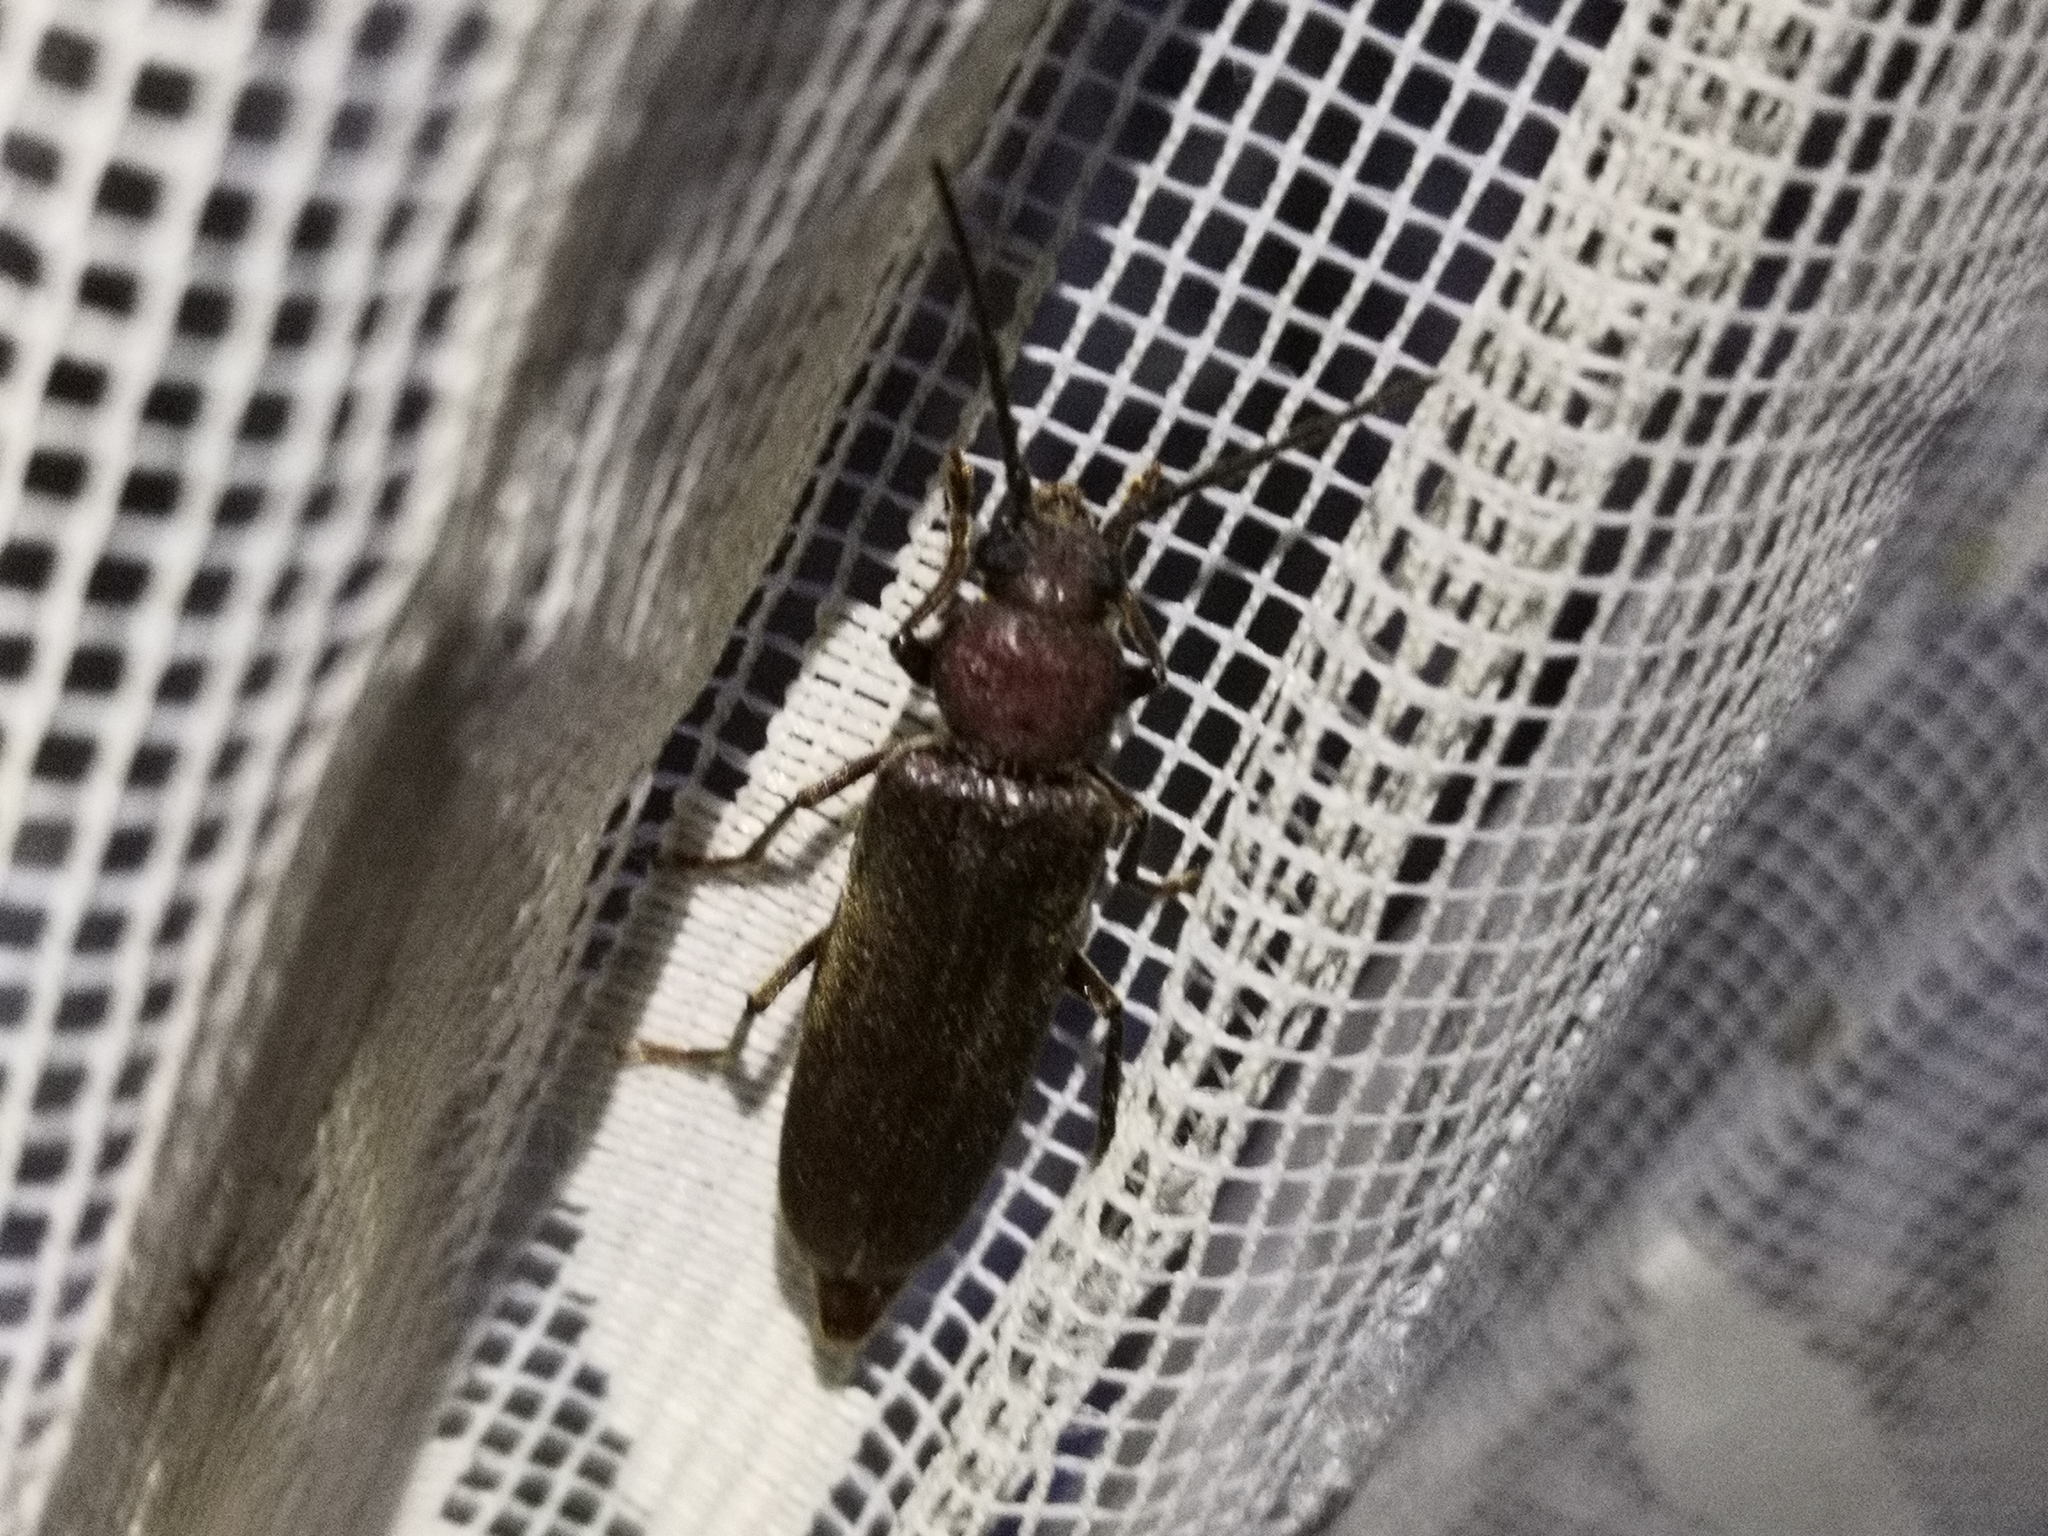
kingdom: Animalia
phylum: Arthropoda
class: Insecta
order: Coleoptera
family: Cerambycidae
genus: Arhopalus
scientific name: Arhopalus rusticus
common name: Rust pine borer
